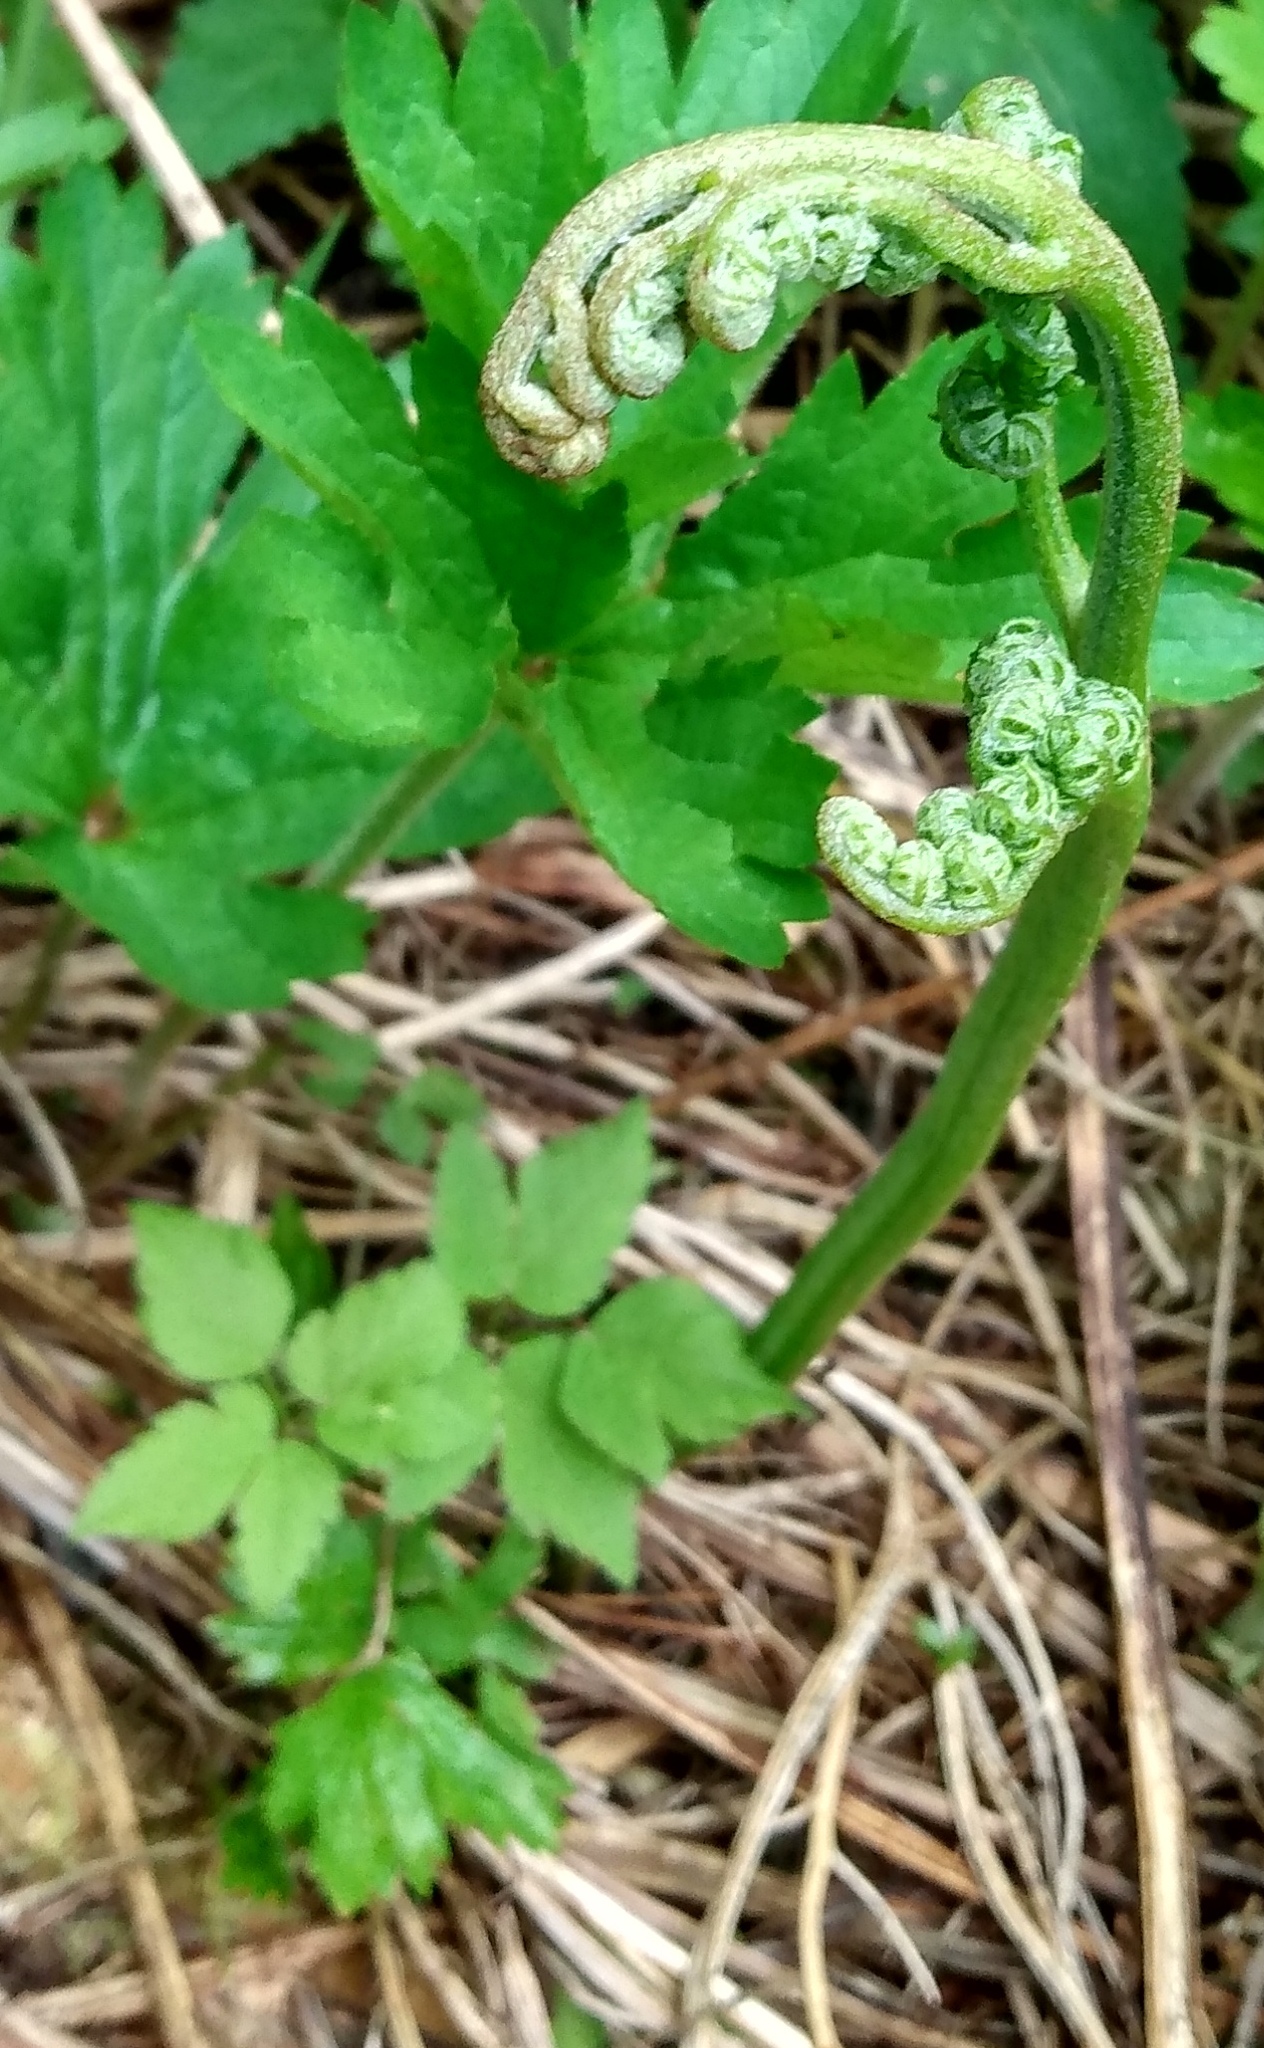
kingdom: Plantae
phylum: Tracheophyta
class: Polypodiopsida
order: Polypodiales
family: Dennstaedtiaceae
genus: Pteridium
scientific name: Pteridium aquilinum
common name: Bracken
